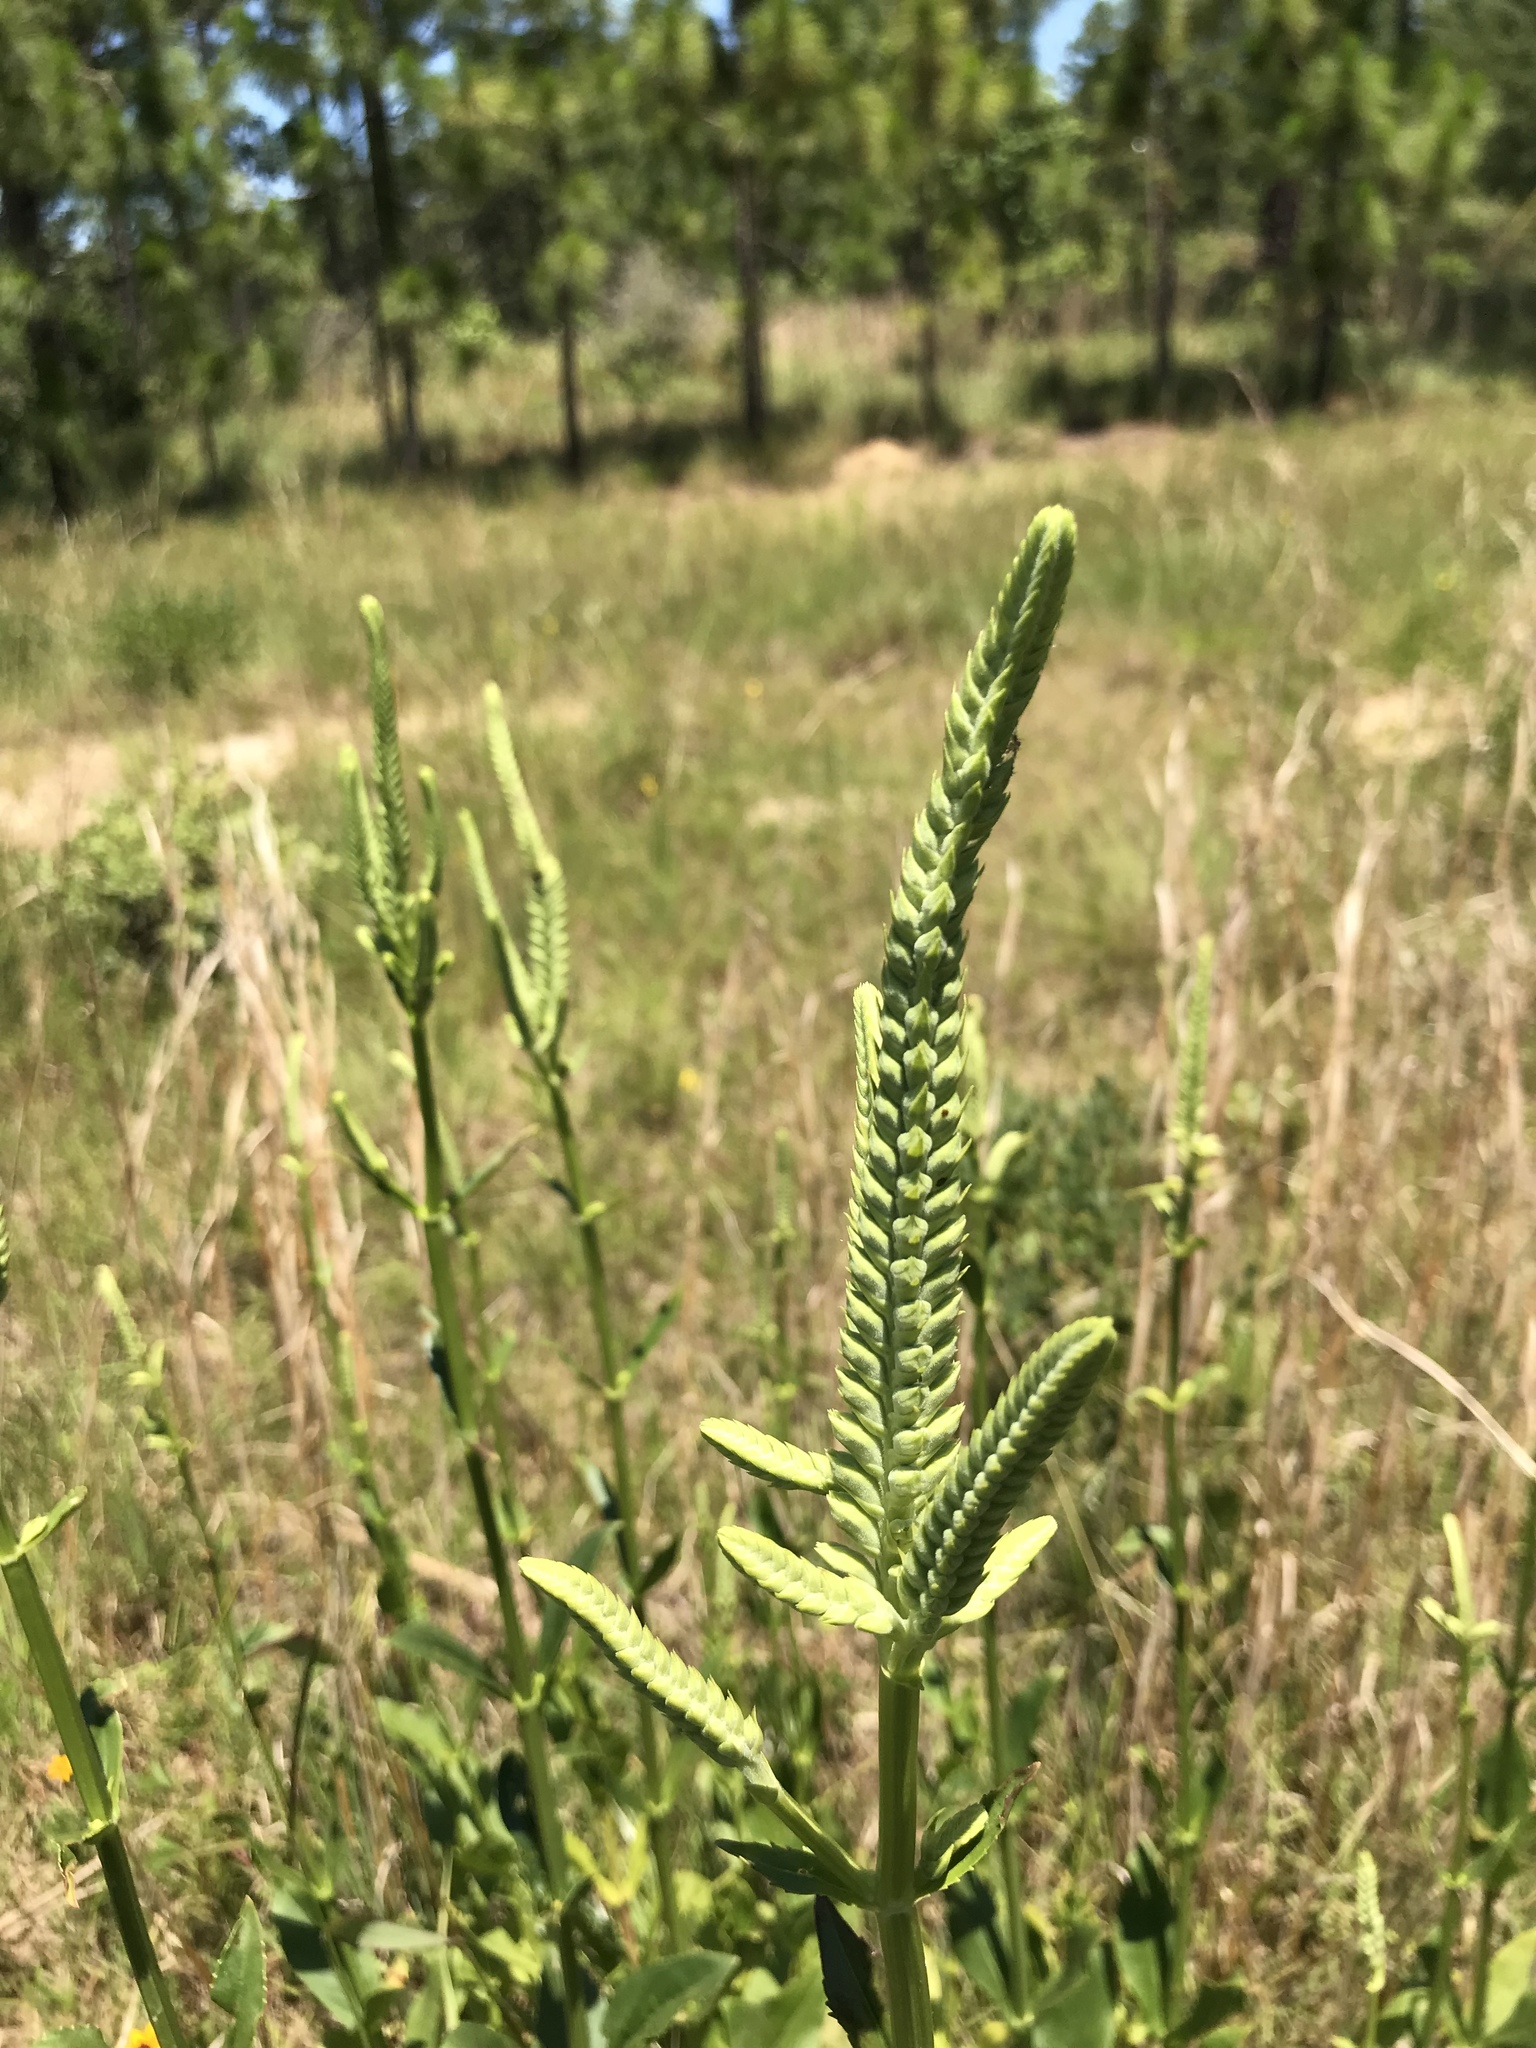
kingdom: Plantae
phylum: Tracheophyta
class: Magnoliopsida
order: Lamiales
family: Lamiaceae
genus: Physostegia
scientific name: Physostegia digitalis
